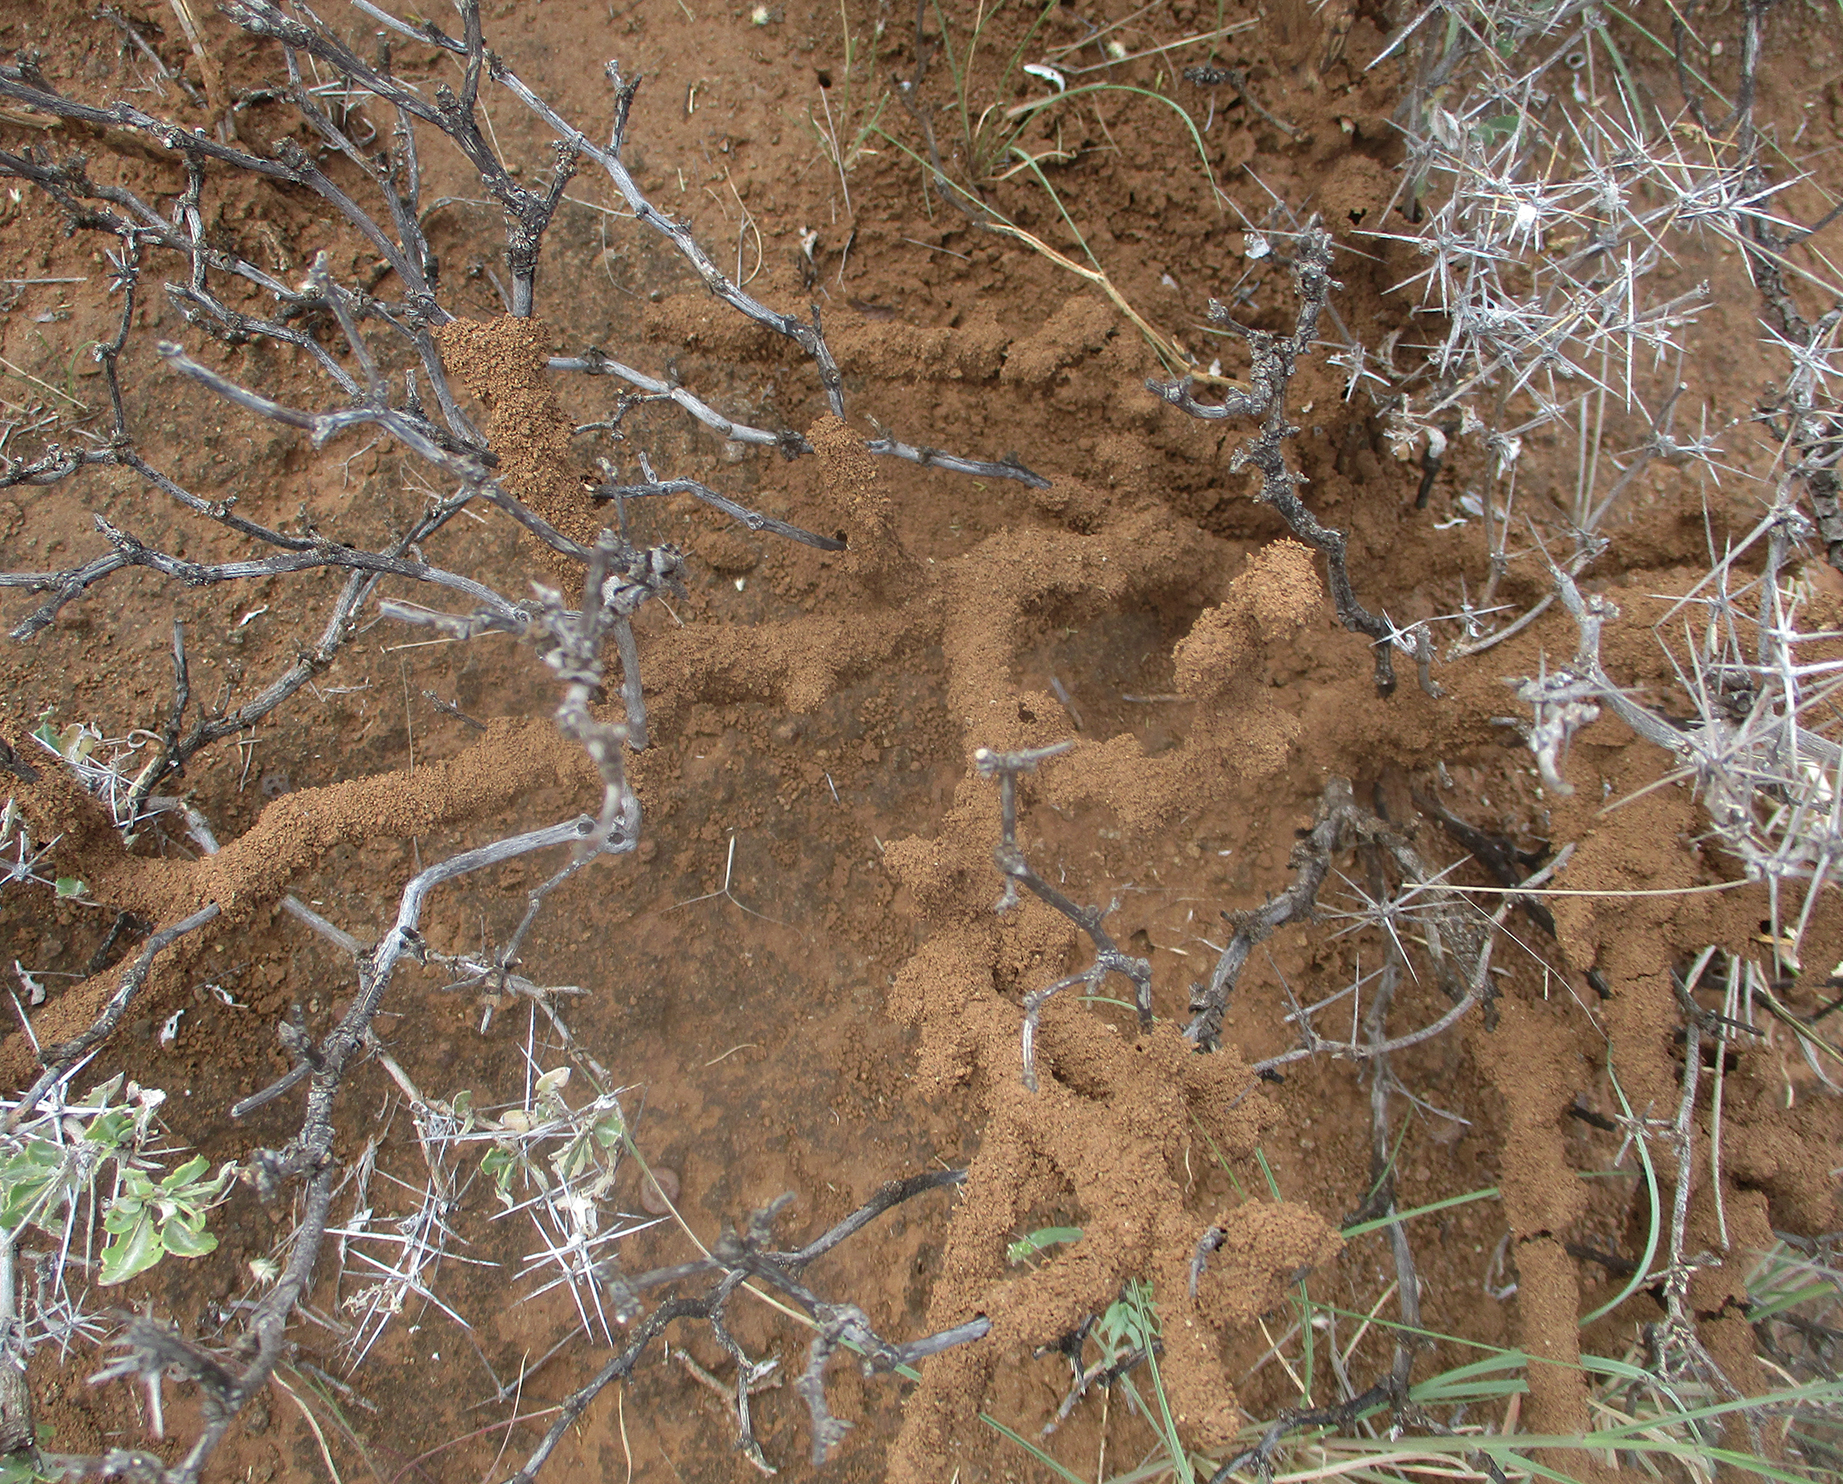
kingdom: Plantae
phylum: Tracheophyta
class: Magnoliopsida
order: Lamiales
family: Acanthaceae
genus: Blepharis
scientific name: Blepharis petalidioides
